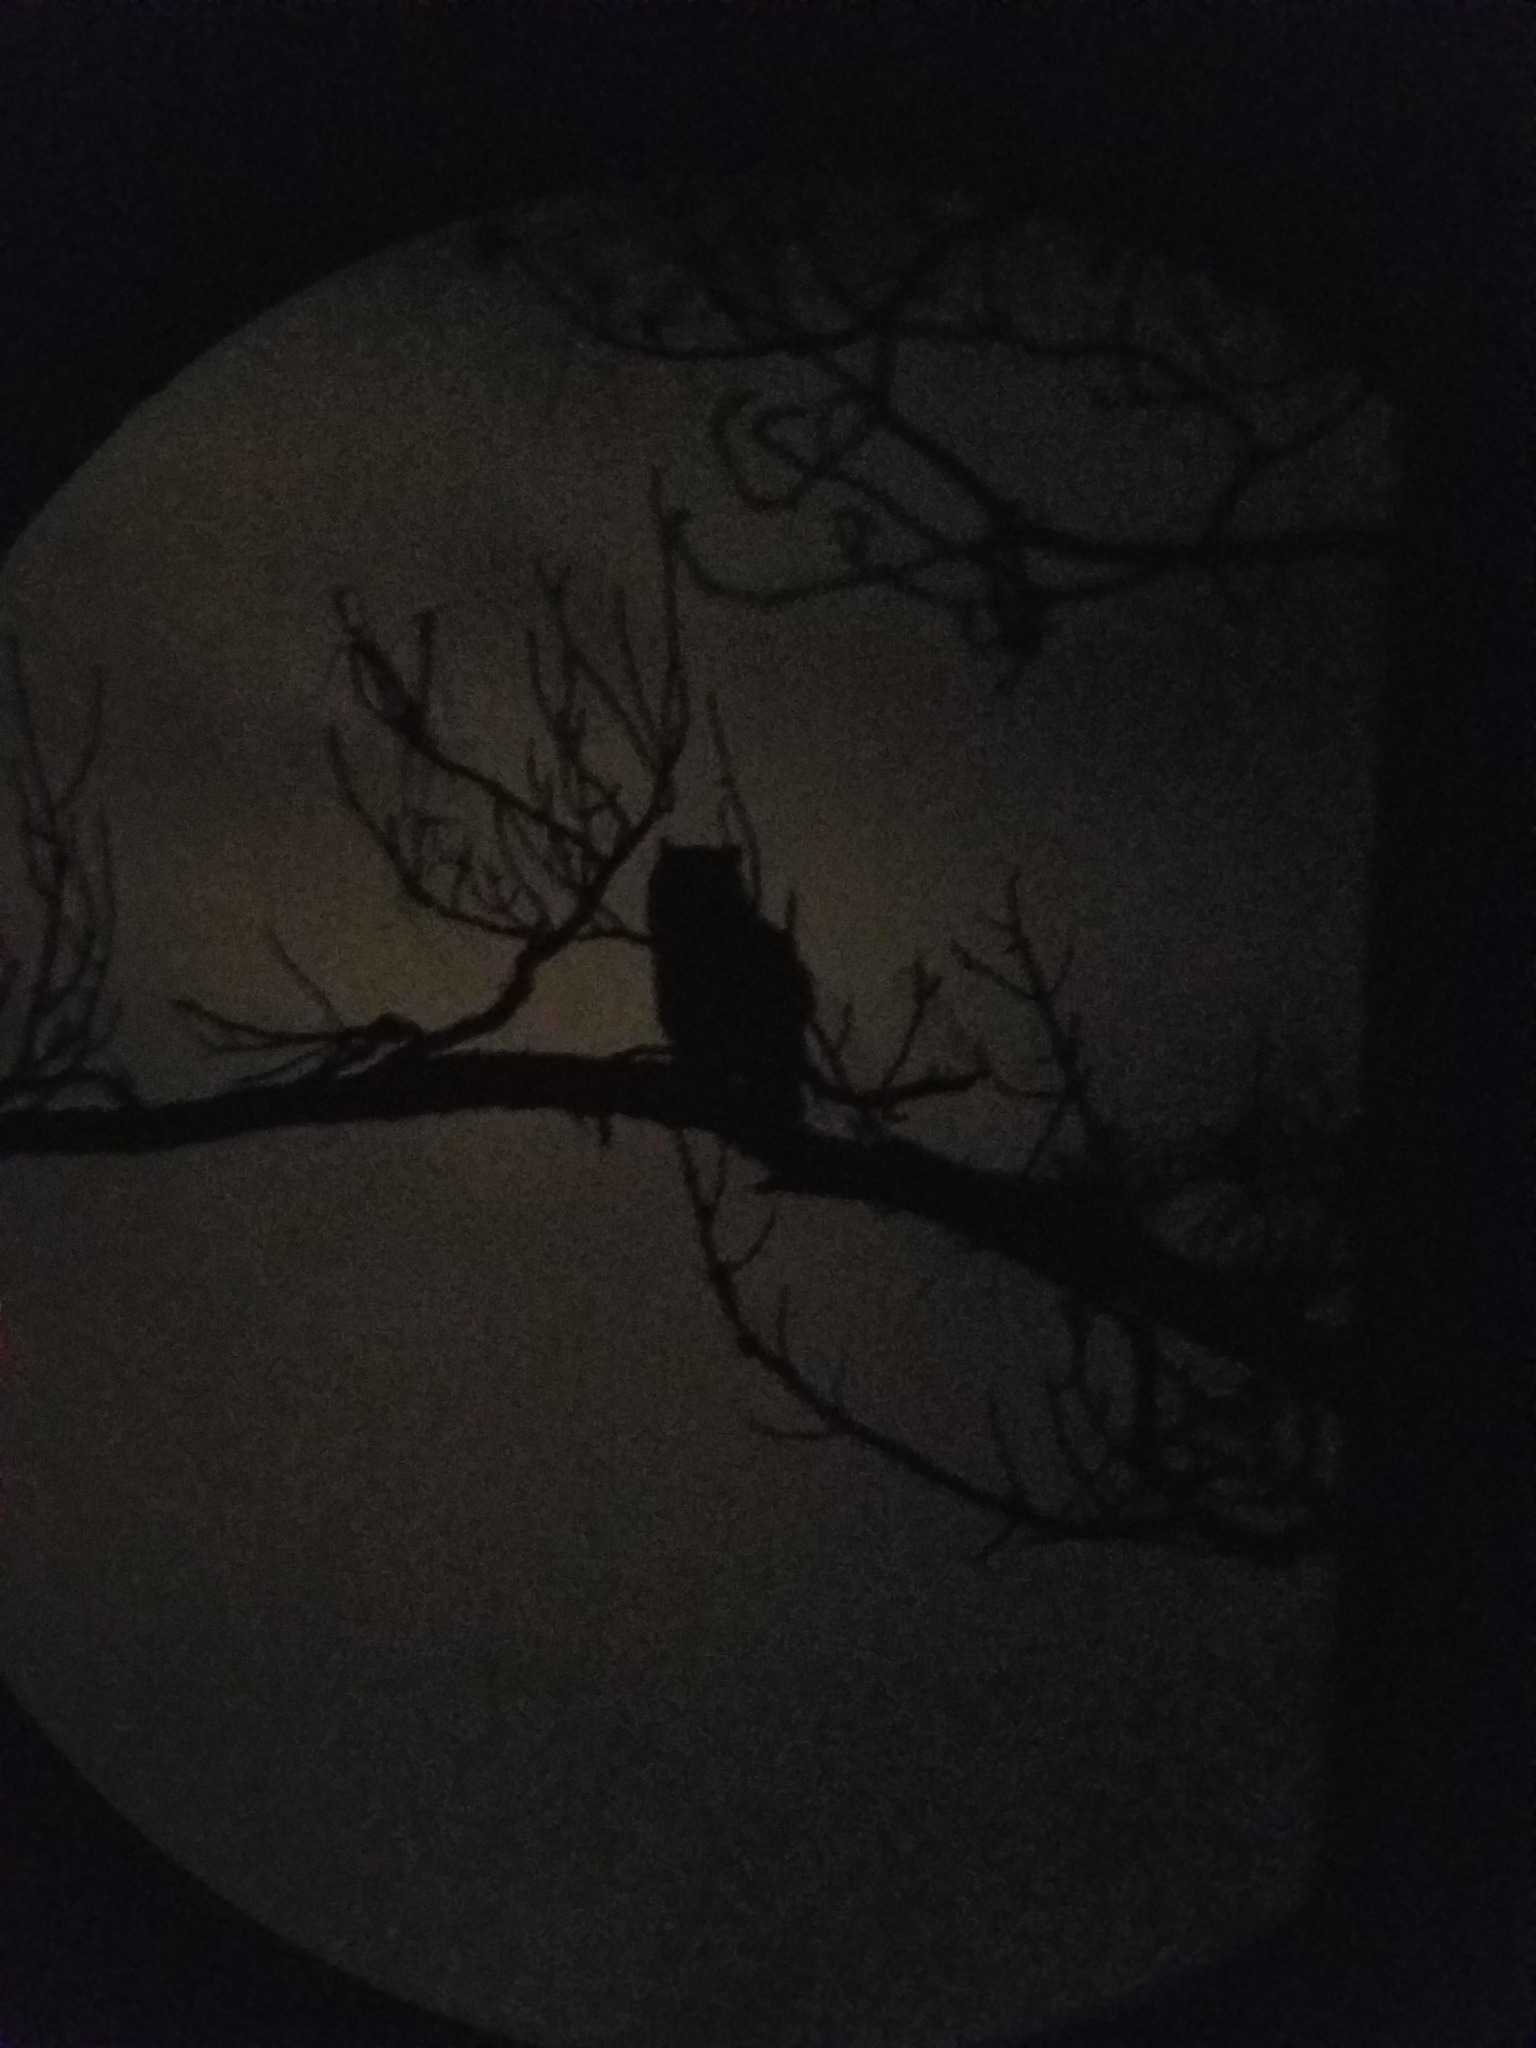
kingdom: Animalia
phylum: Chordata
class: Aves
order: Strigiformes
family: Strigidae
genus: Bubo
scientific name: Bubo virginianus
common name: Great horned owl
